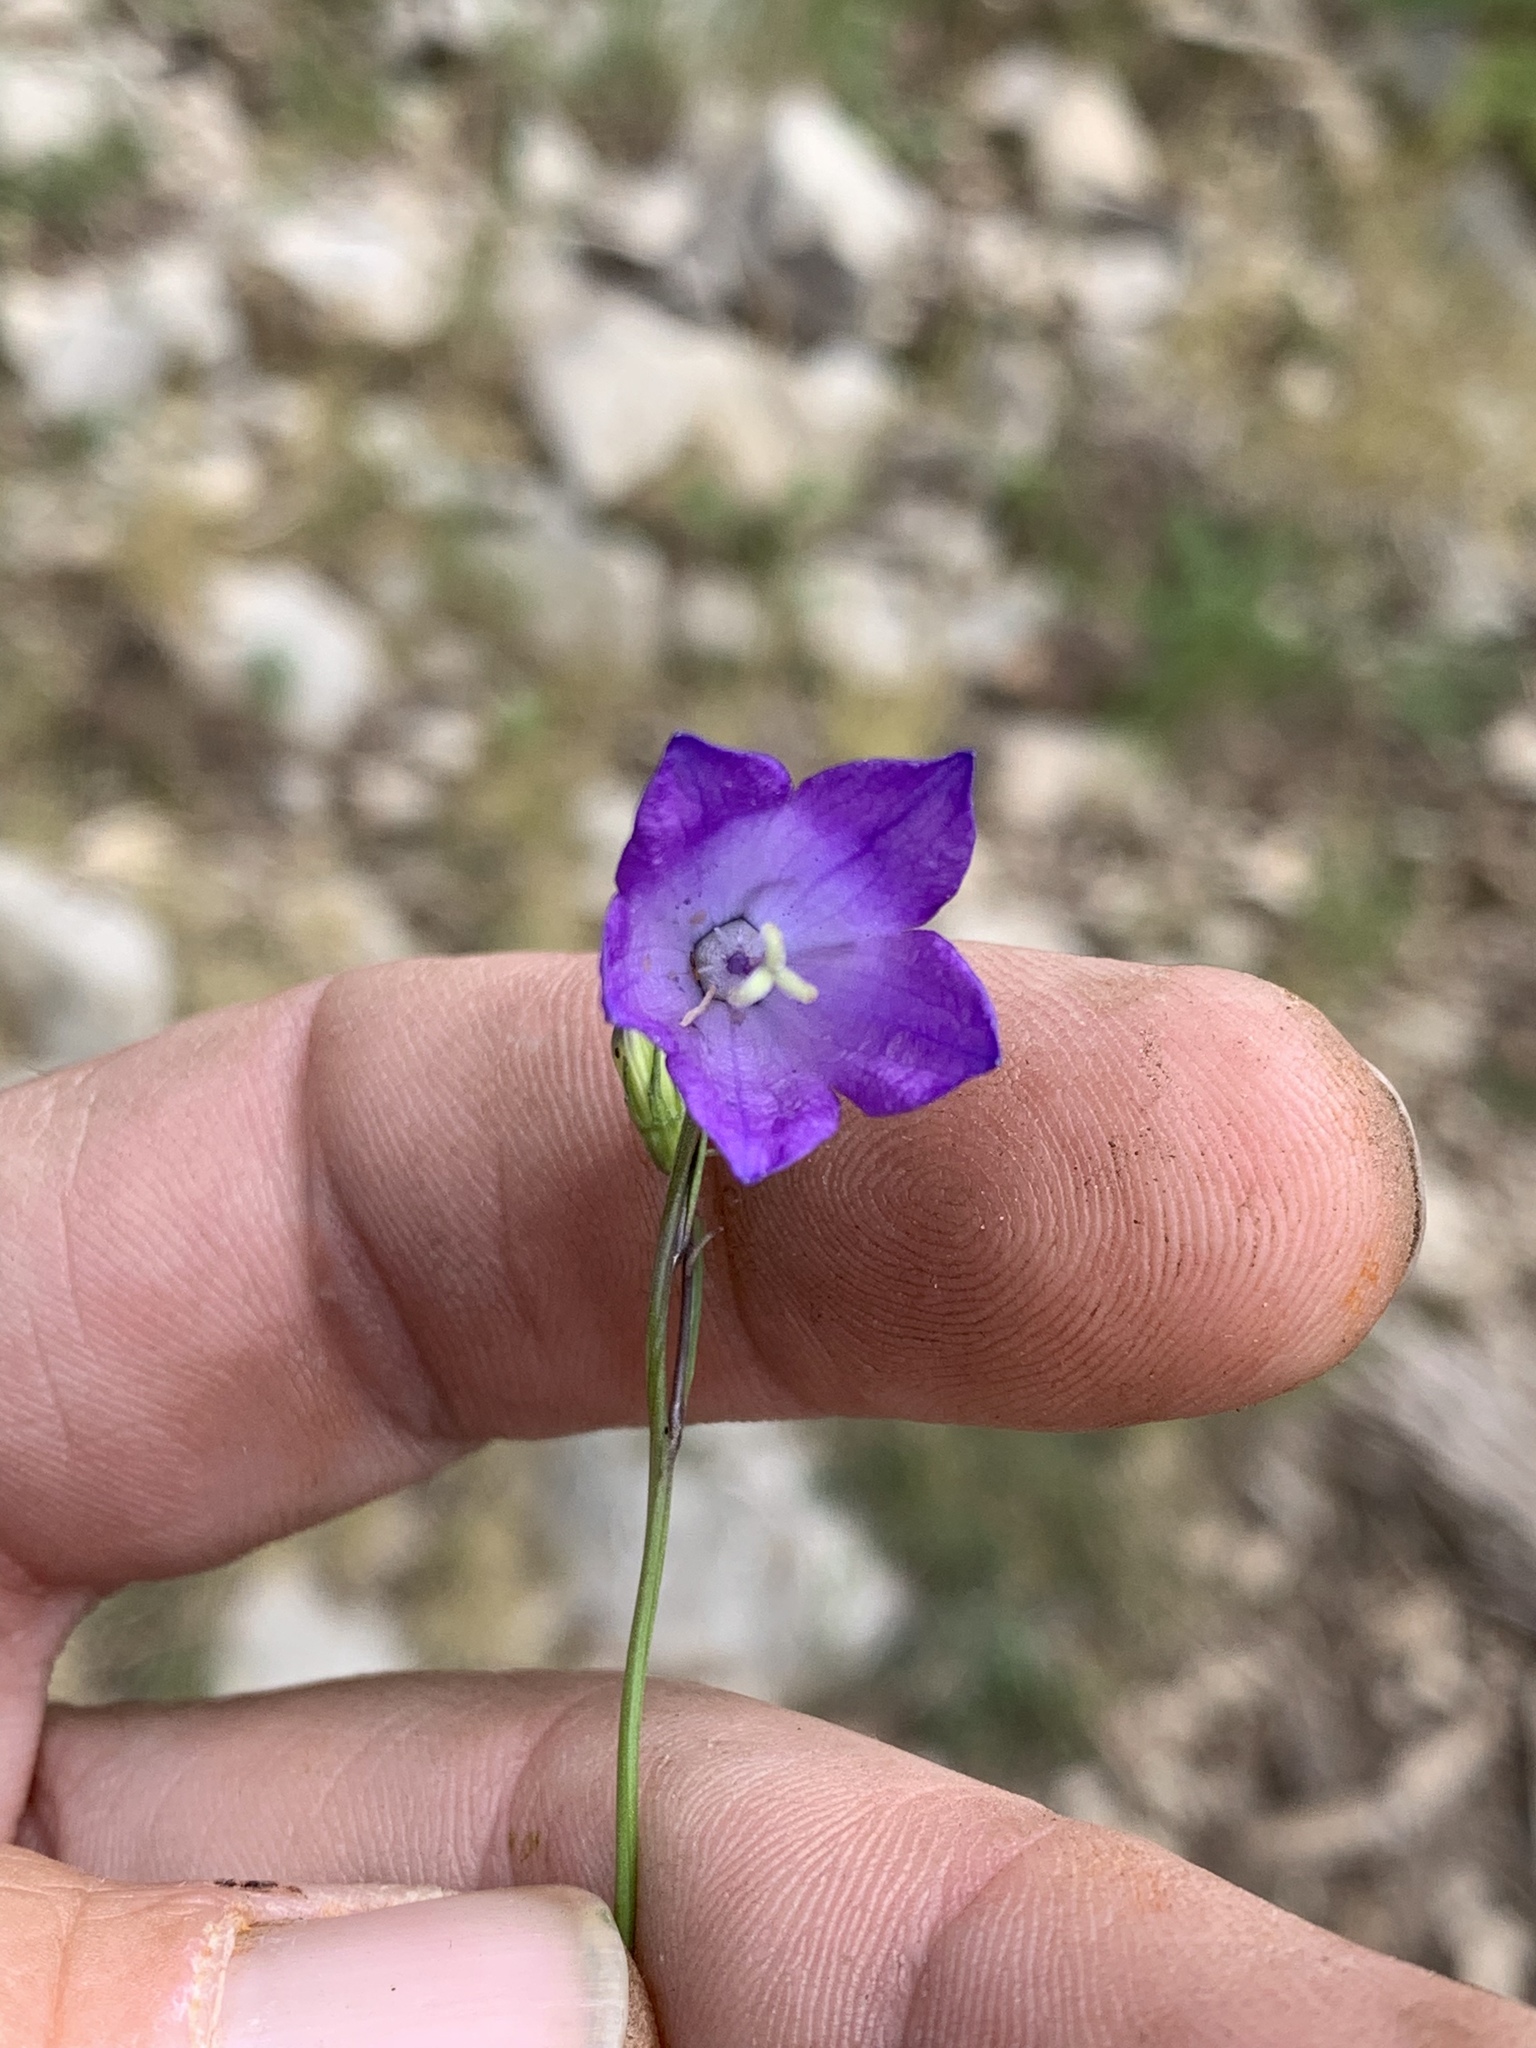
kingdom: Plantae
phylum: Tracheophyta
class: Magnoliopsida
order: Asterales
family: Campanulaceae
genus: Campanula
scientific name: Campanula petiolata
